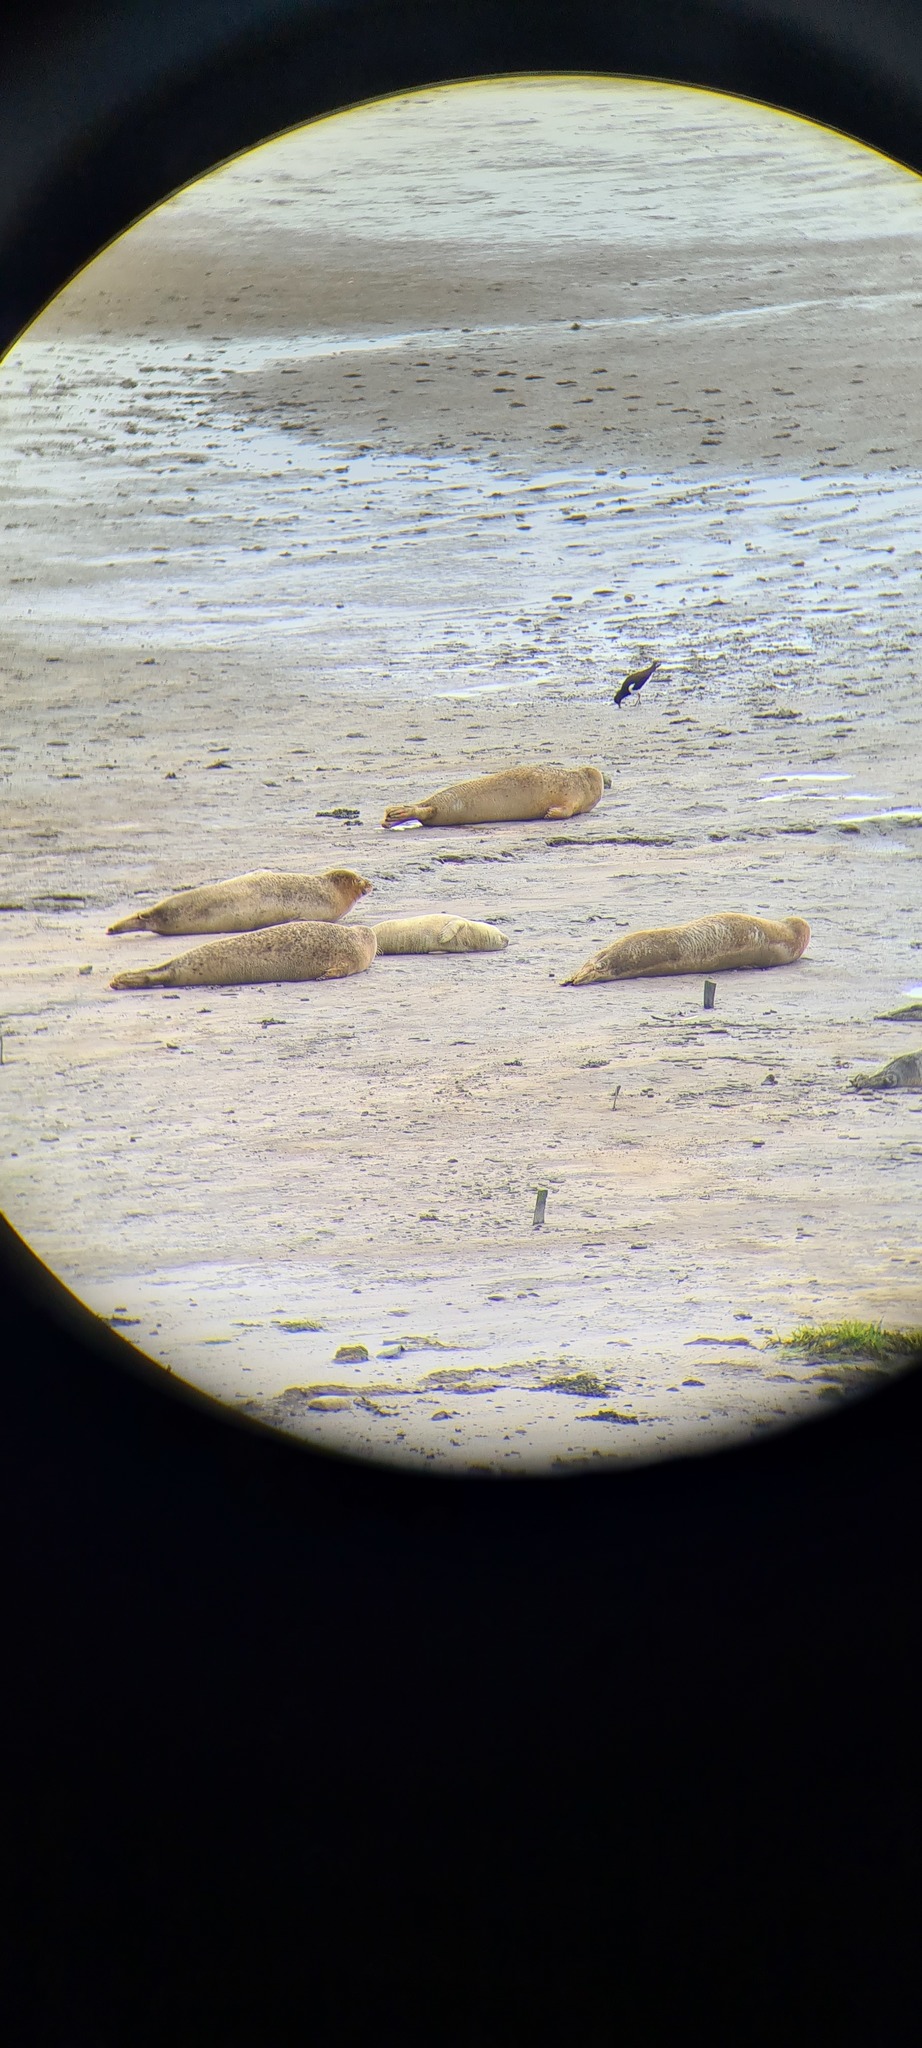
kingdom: Animalia
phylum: Chordata
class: Mammalia
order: Carnivora
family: Phocidae
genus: Phoca
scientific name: Phoca vitulina
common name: Harbor seal
